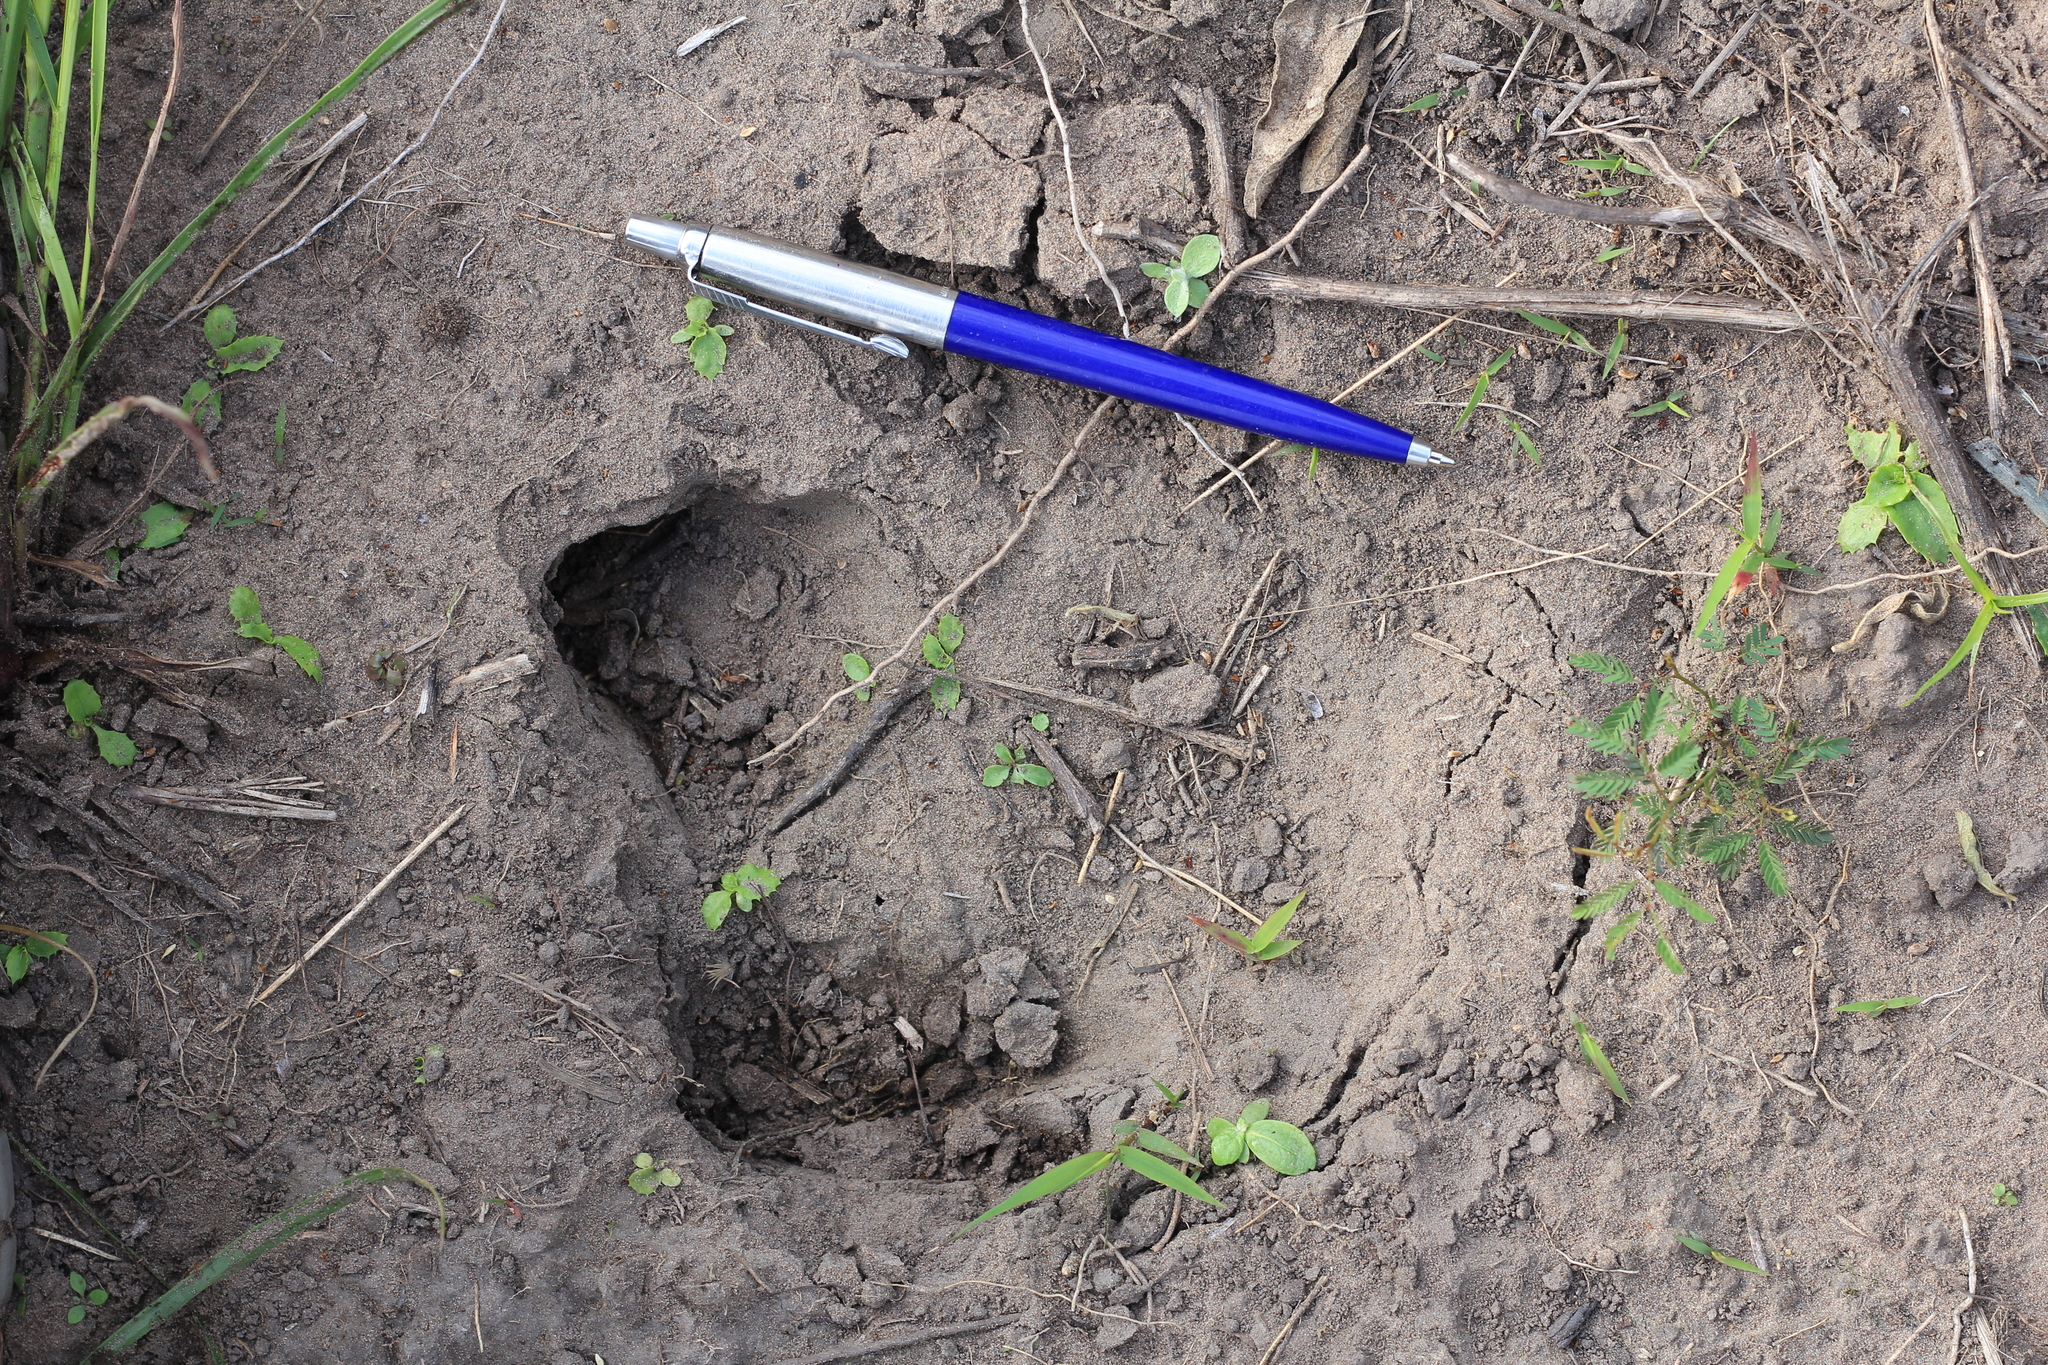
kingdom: Animalia
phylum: Chordata
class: Mammalia
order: Perissodactyla
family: Tapiridae
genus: Tapirus
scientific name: Tapirus terrestris
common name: Brazilian tapir
